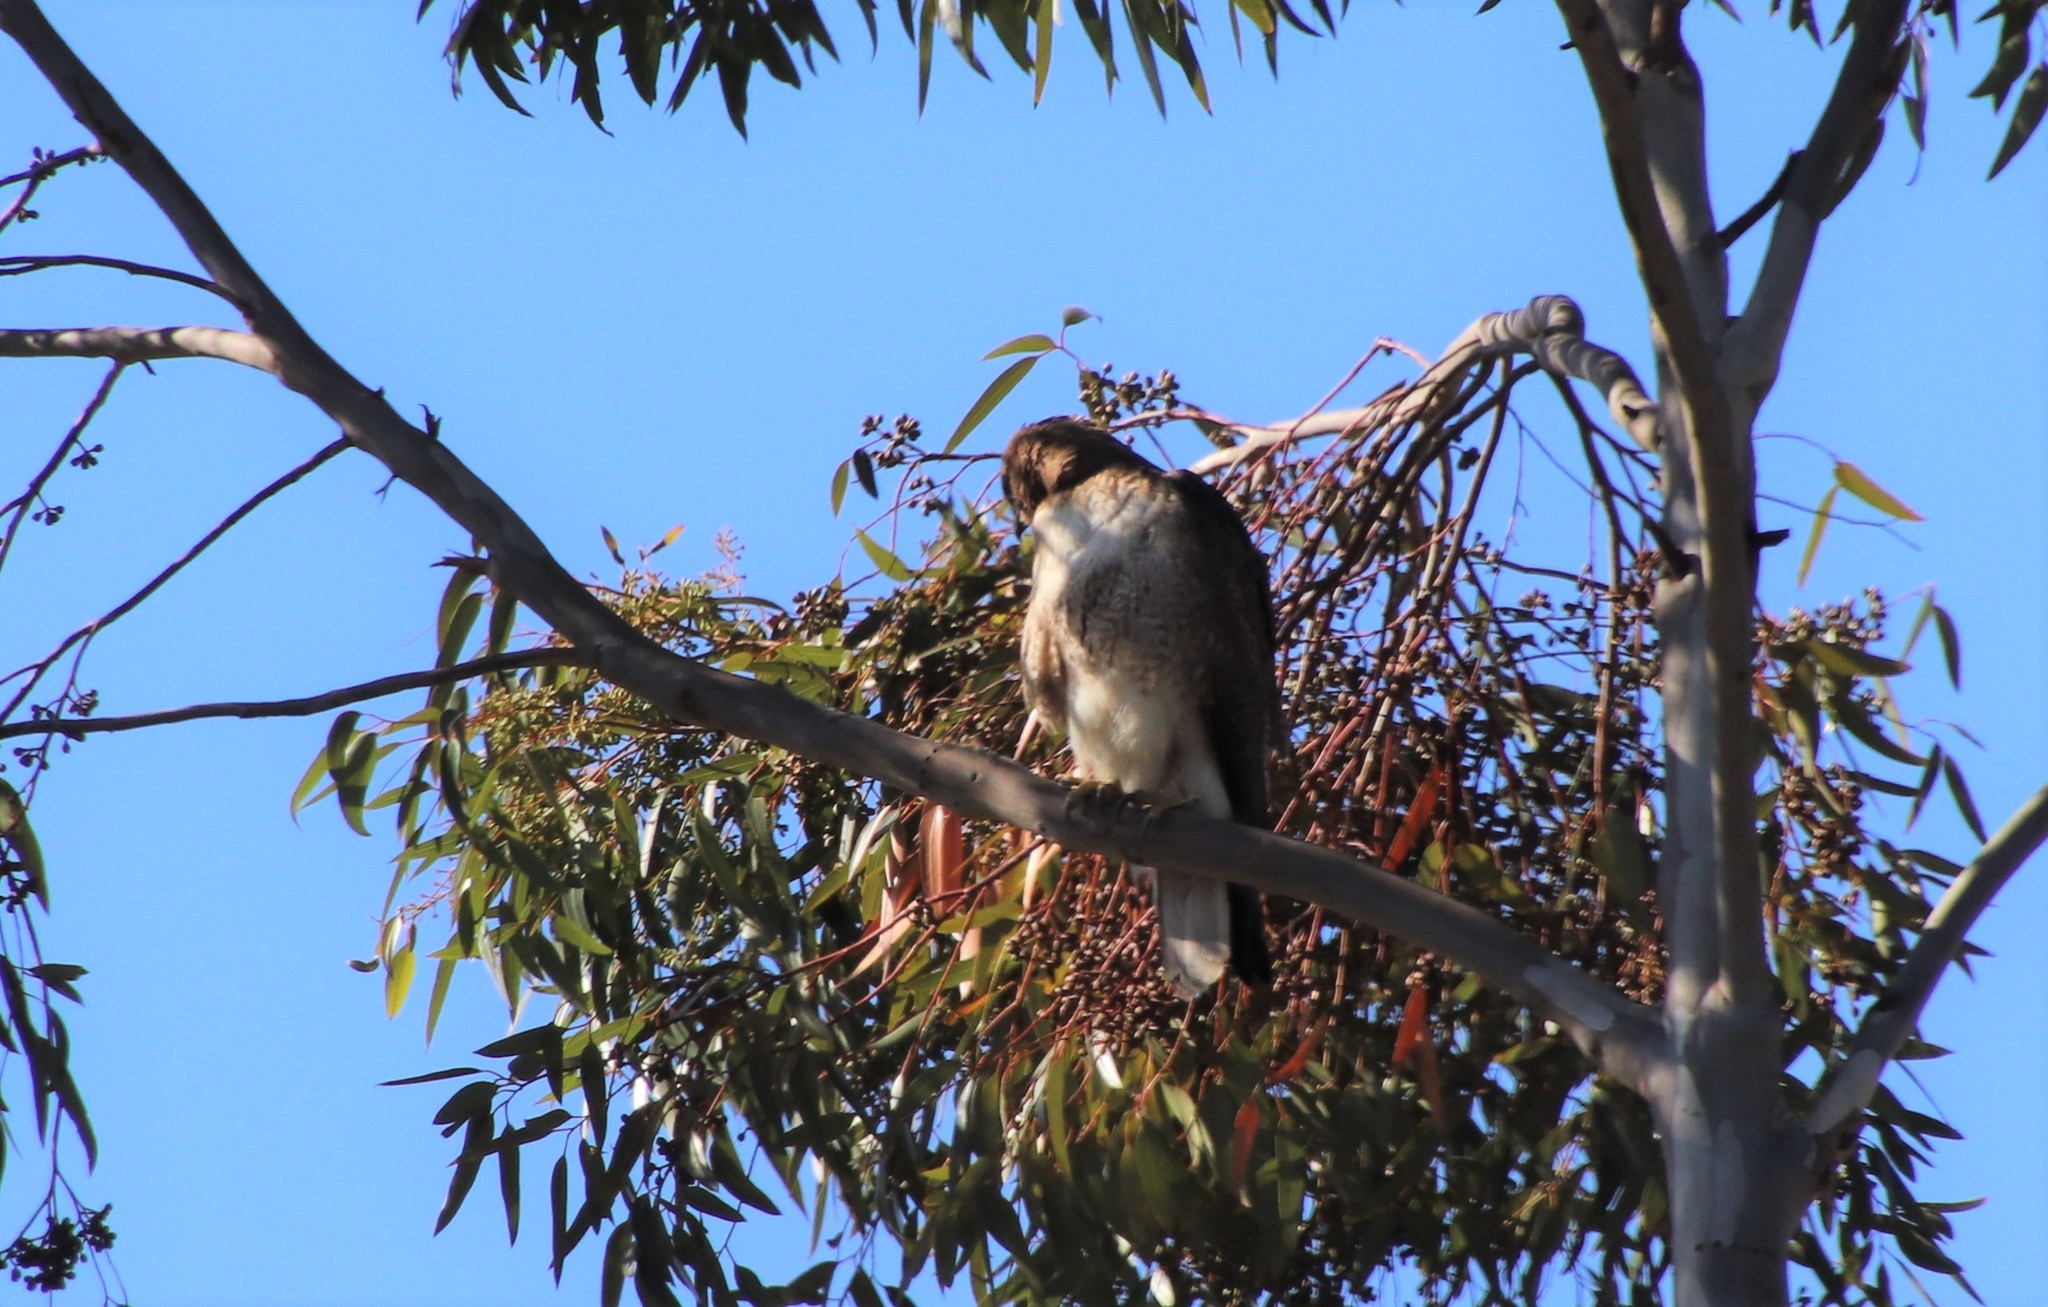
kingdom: Animalia
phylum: Chordata
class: Aves
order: Accipitriformes
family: Accipitridae
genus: Buteo
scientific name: Buteo jamaicensis
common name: Red-tailed hawk
